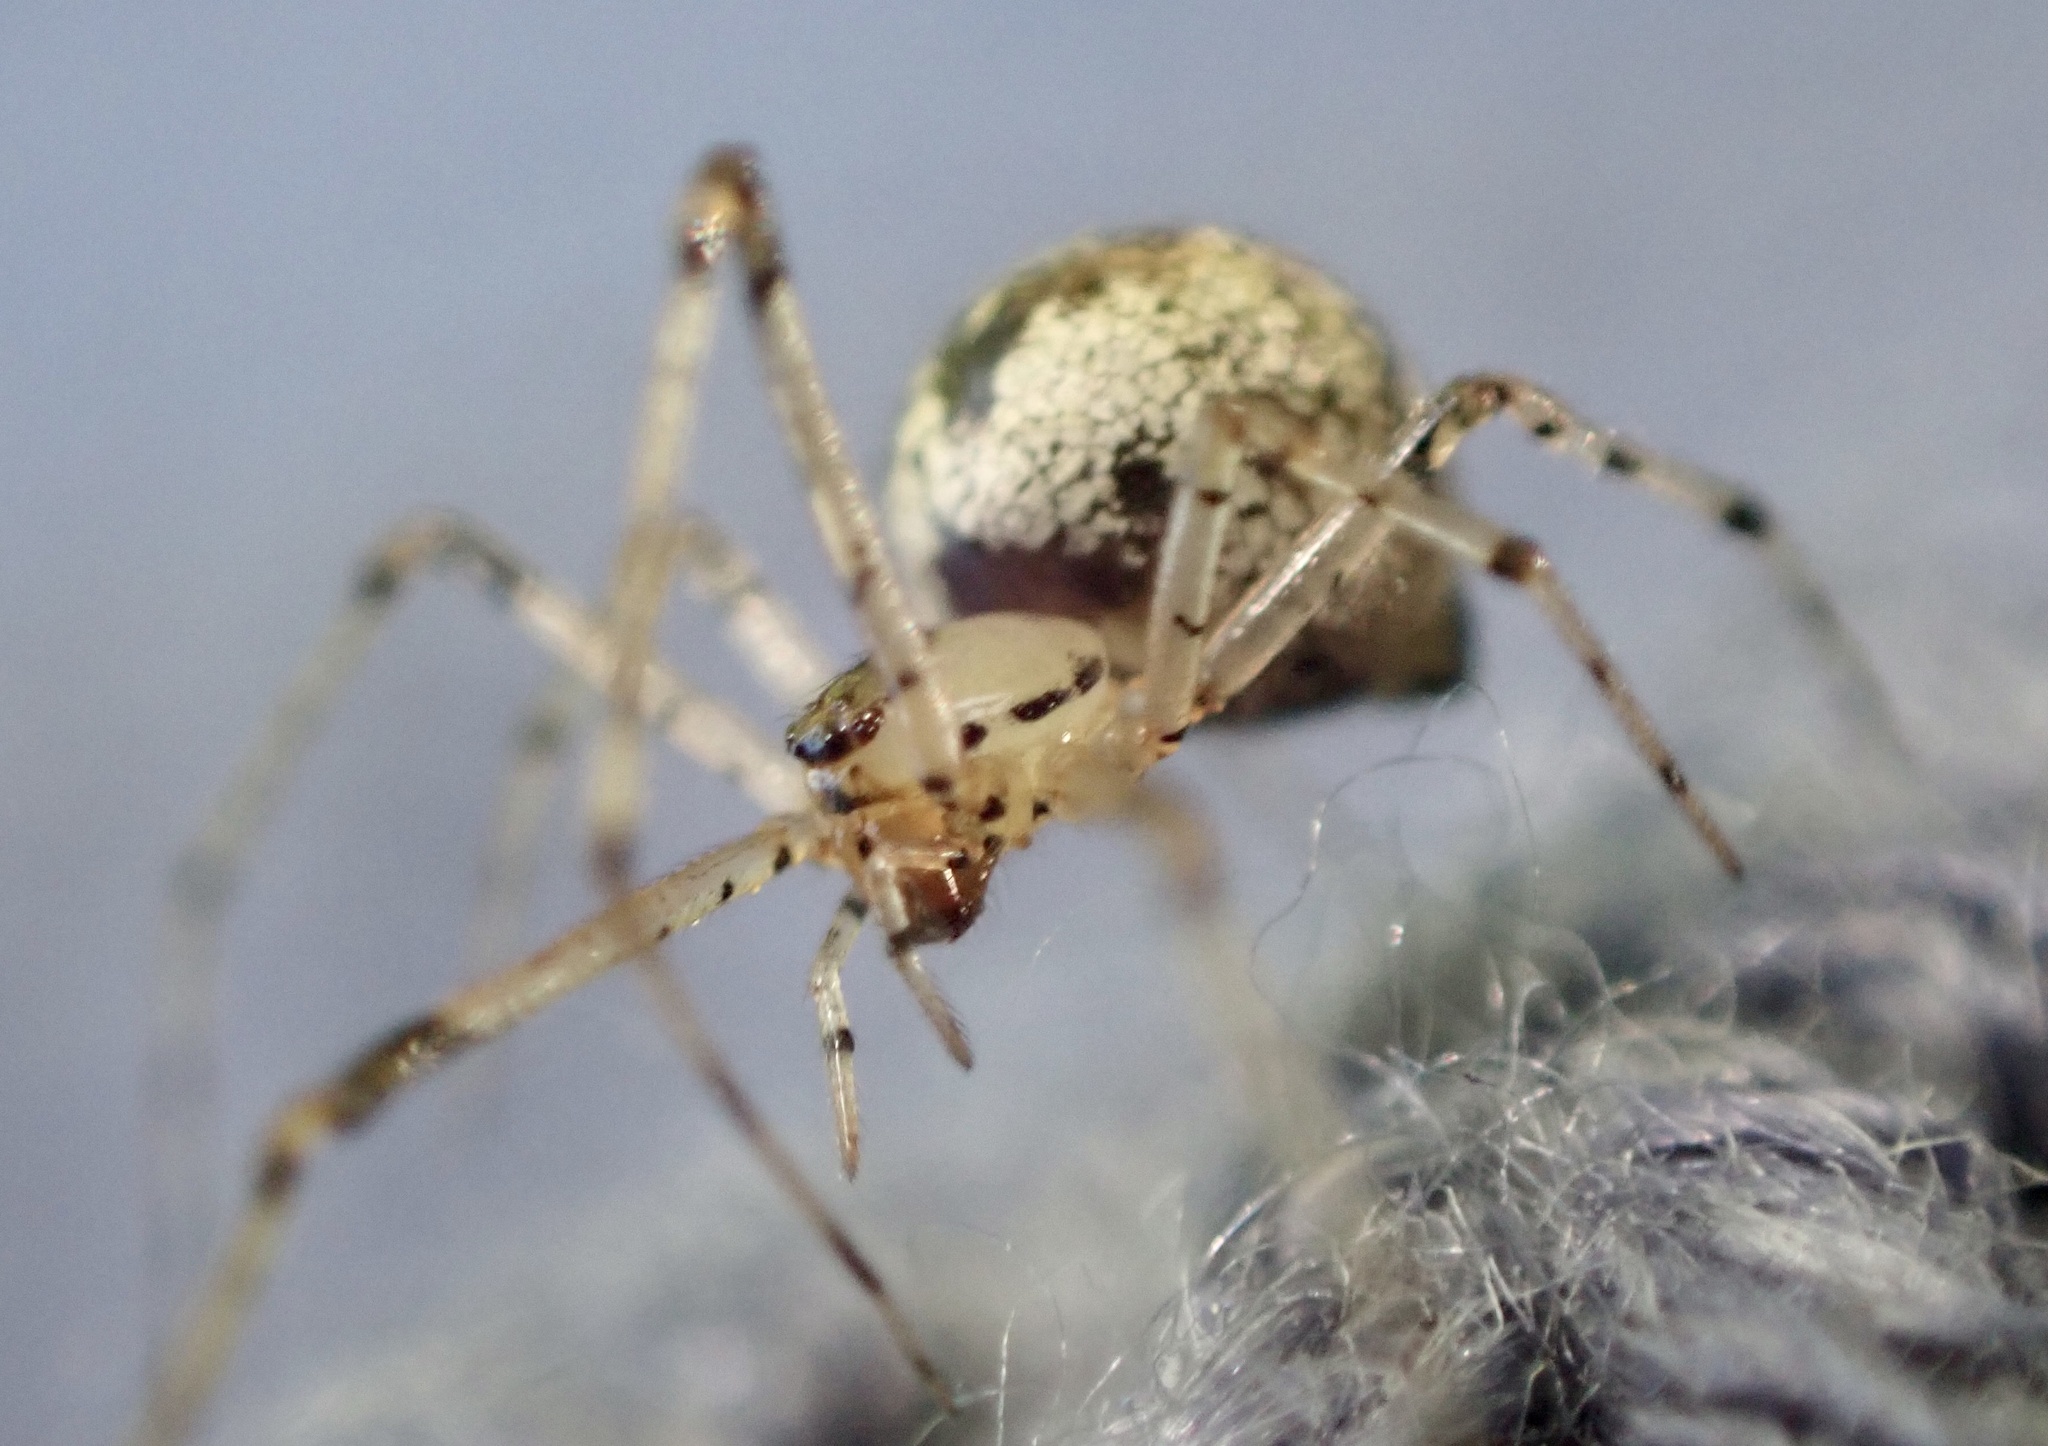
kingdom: Animalia
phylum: Arthropoda
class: Arachnida
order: Araneae
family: Theridiidae
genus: Platnickina
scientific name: Platnickina tincta
